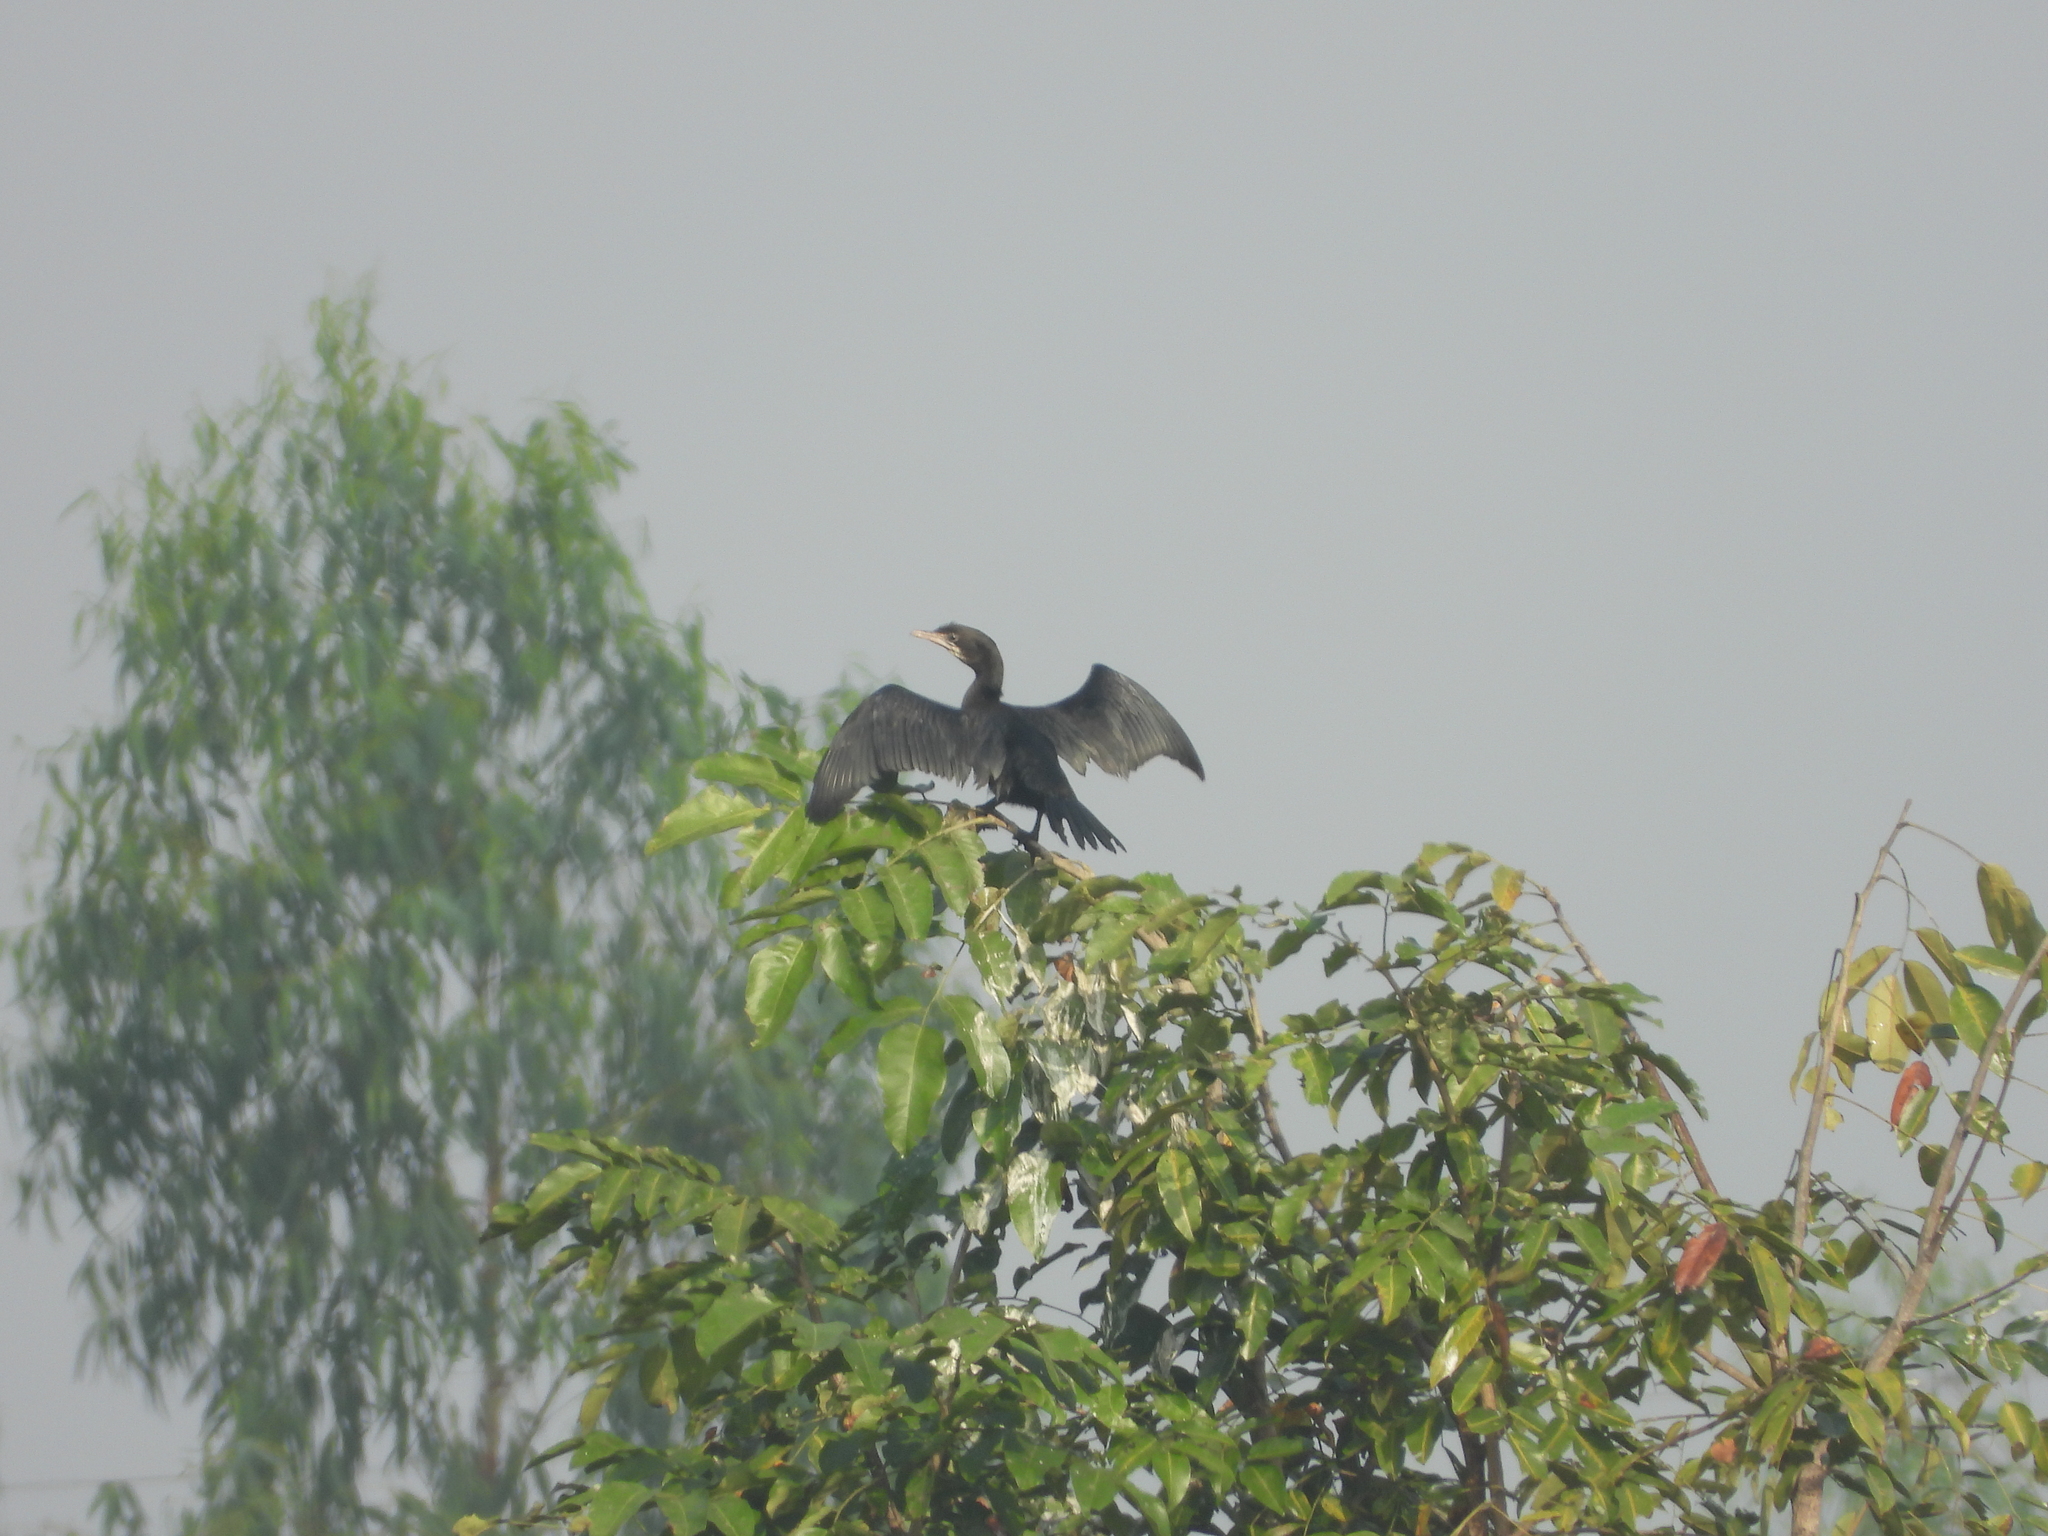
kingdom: Animalia
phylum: Chordata
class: Aves
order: Suliformes
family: Phalacrocoracidae
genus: Microcarbo
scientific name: Microcarbo niger
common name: Little cormorant
